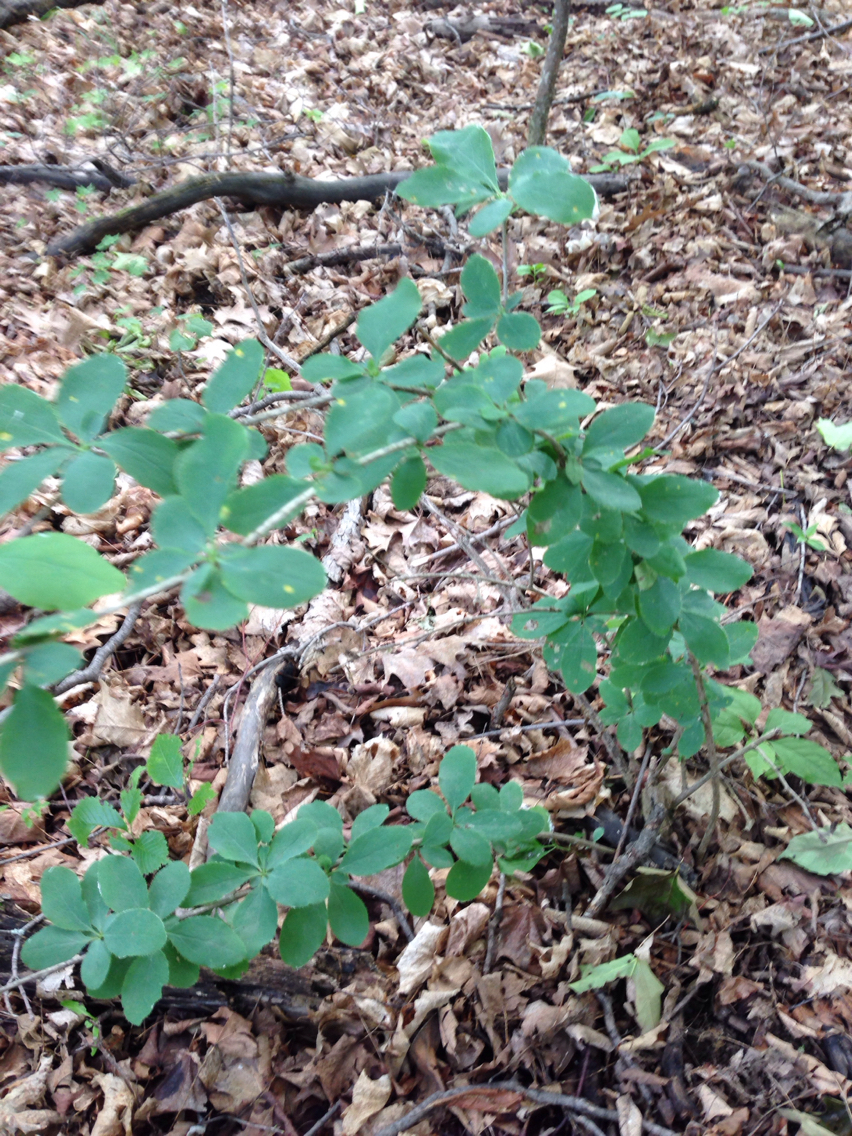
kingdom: Plantae
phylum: Tracheophyta
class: Magnoliopsida
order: Ranunculales
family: Berberidaceae
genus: Berberis
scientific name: Berberis vulgaris
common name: Barberry
